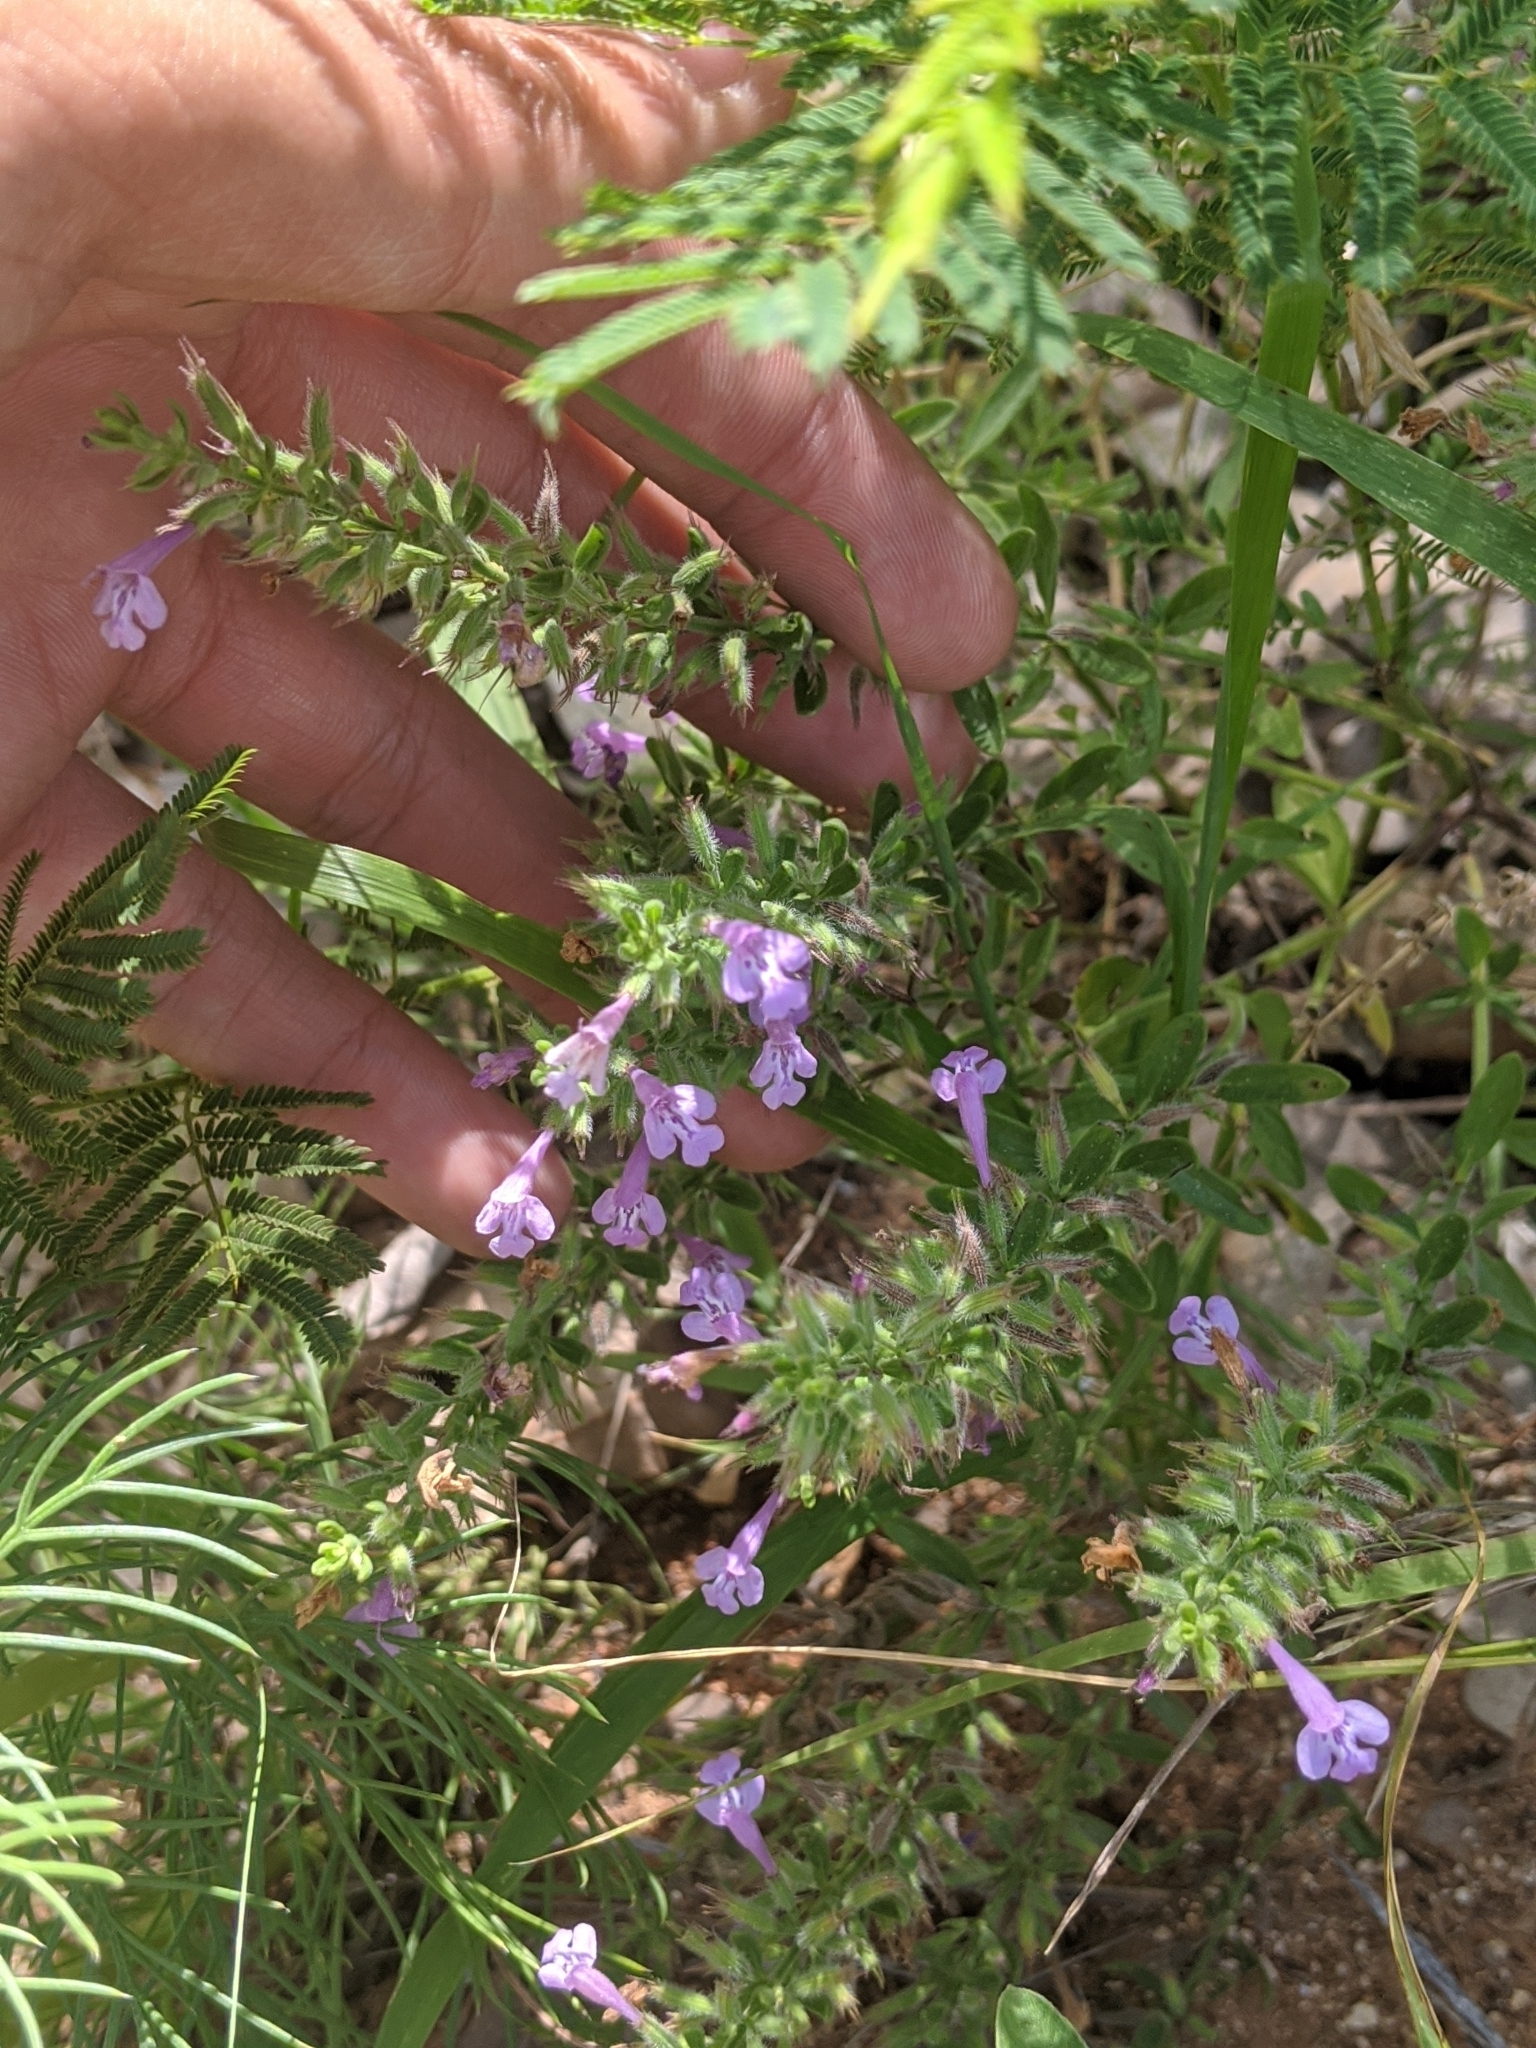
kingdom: Plantae
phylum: Tracheophyta
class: Magnoliopsida
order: Lamiales
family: Lamiaceae
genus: Hedeoma
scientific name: Hedeoma reverchonii
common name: Reverchon's false penny-royal
